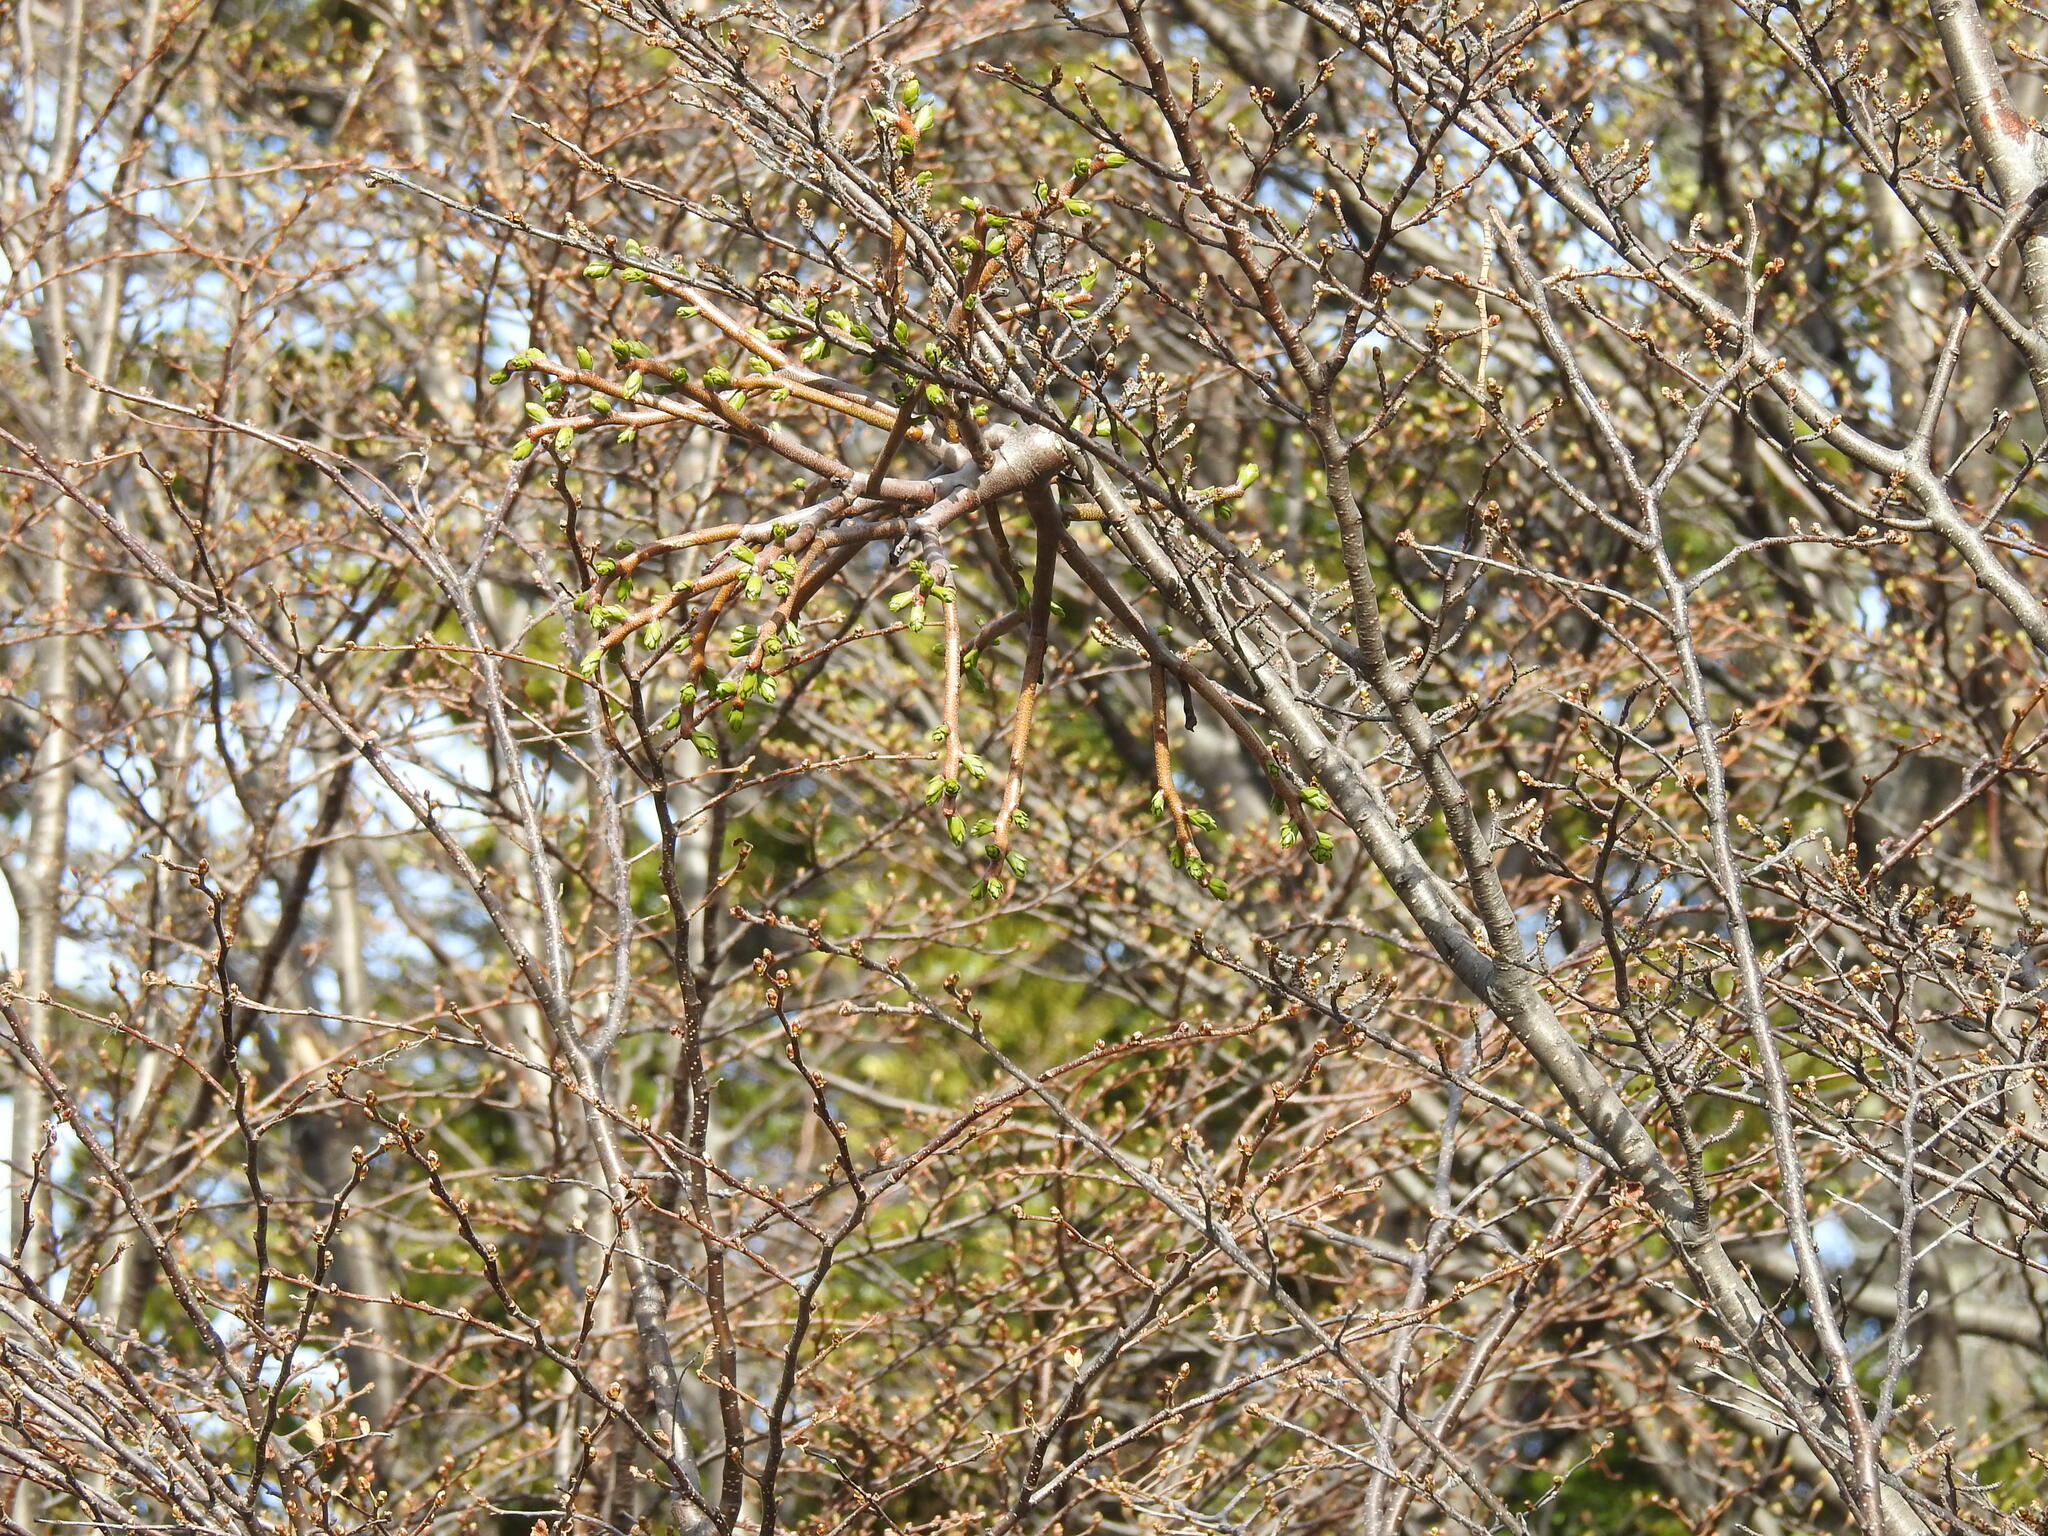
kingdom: Plantae
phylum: Tracheophyta
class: Magnoliopsida
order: Santalales
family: Misodendraceae
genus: Misodendrum
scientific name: Misodendrum brachystachyum
